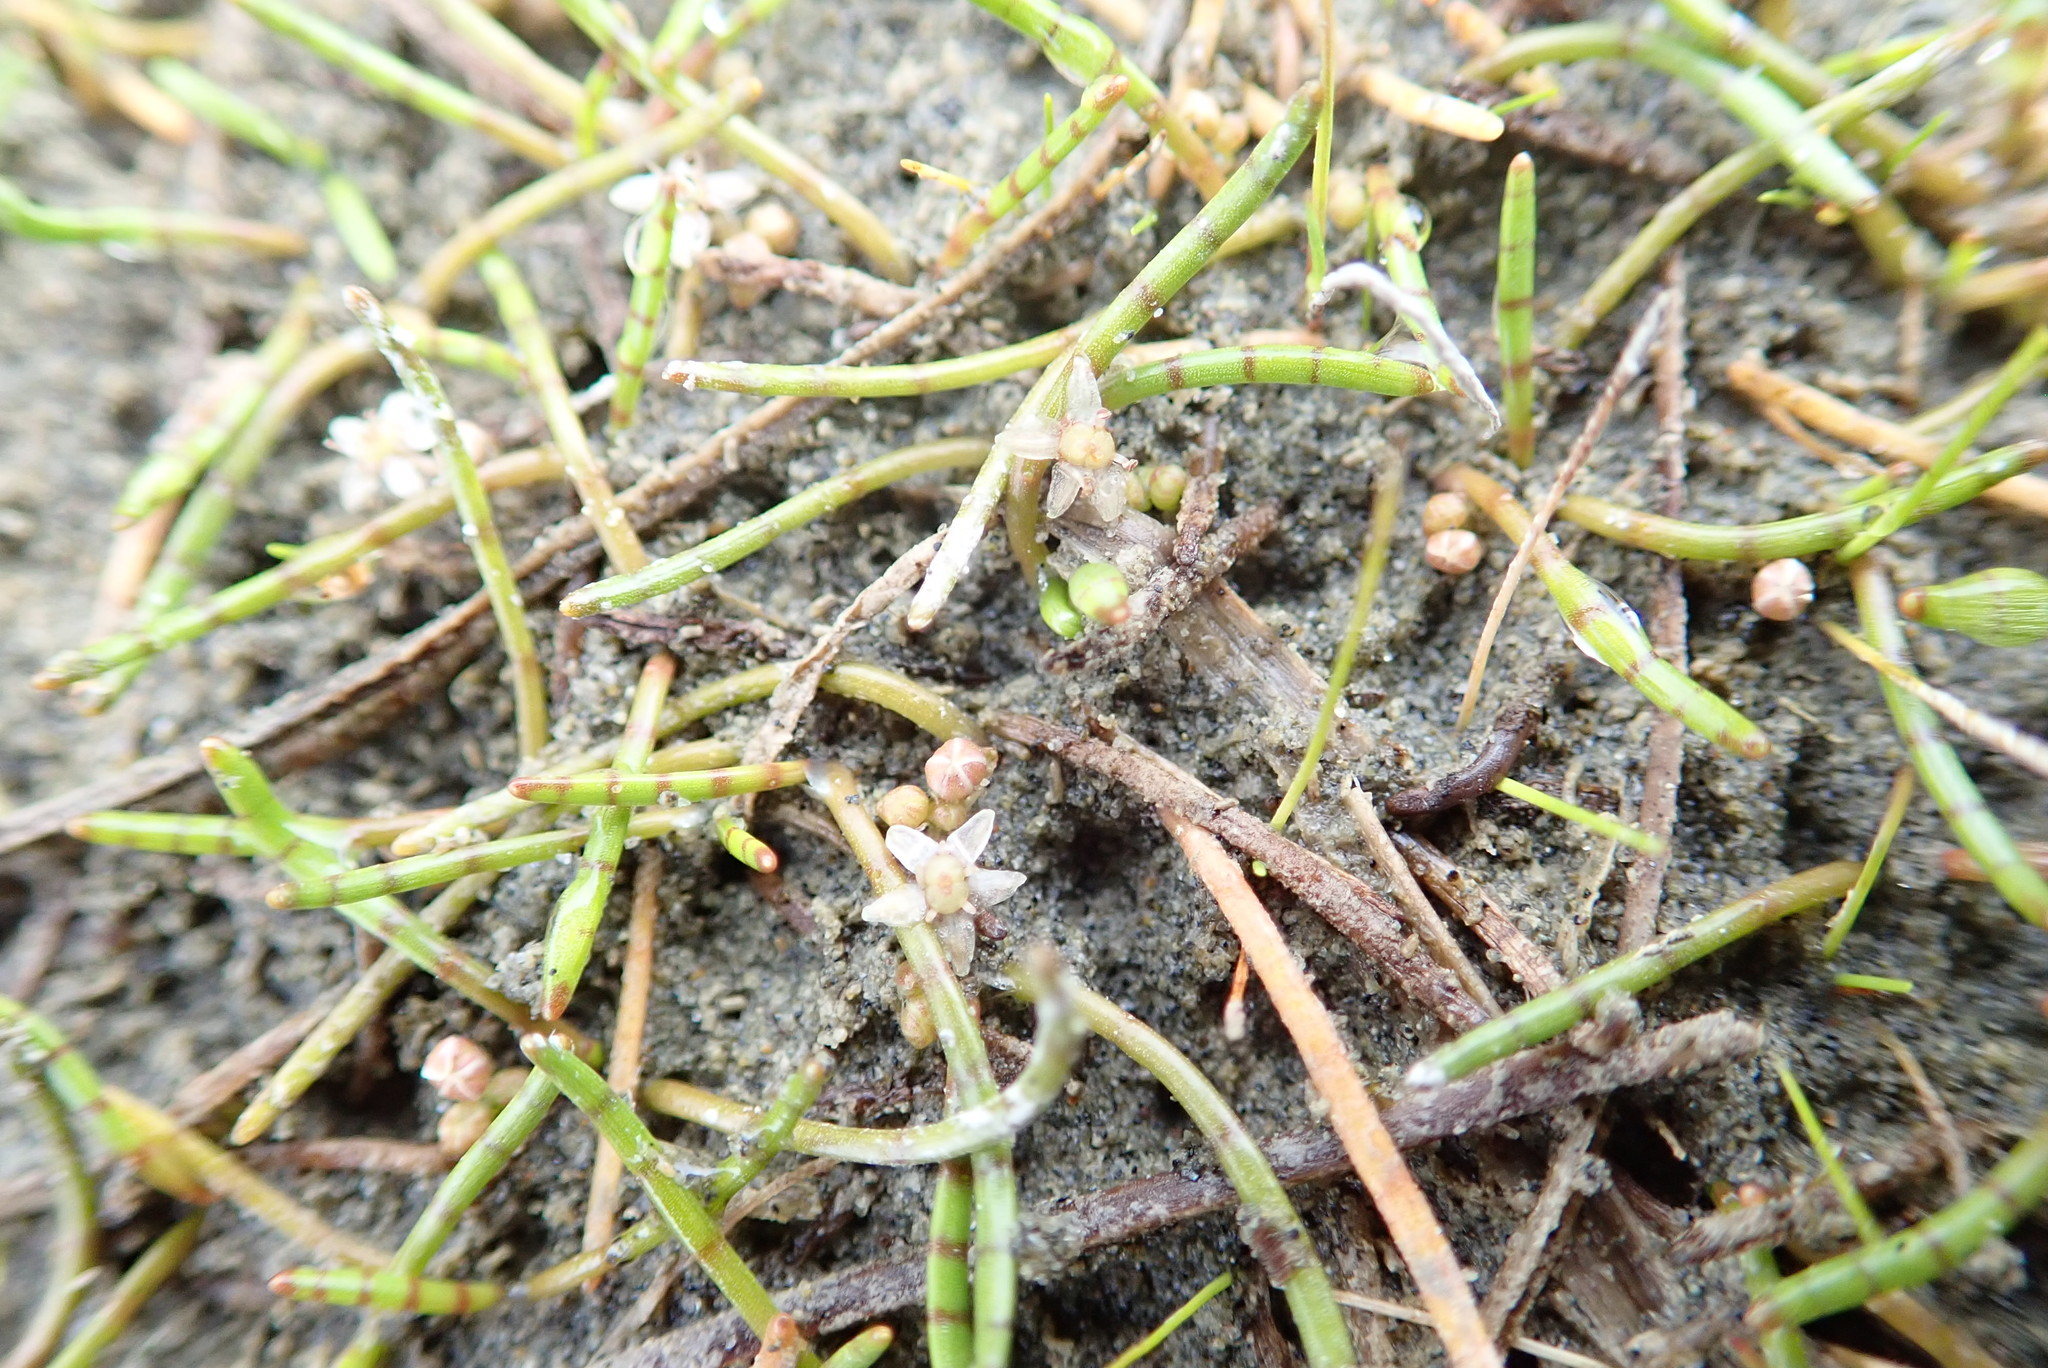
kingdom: Plantae
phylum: Tracheophyta
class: Magnoliopsida
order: Apiales
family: Apiaceae
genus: Lilaeopsis
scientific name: Lilaeopsis novae-zelandiae
